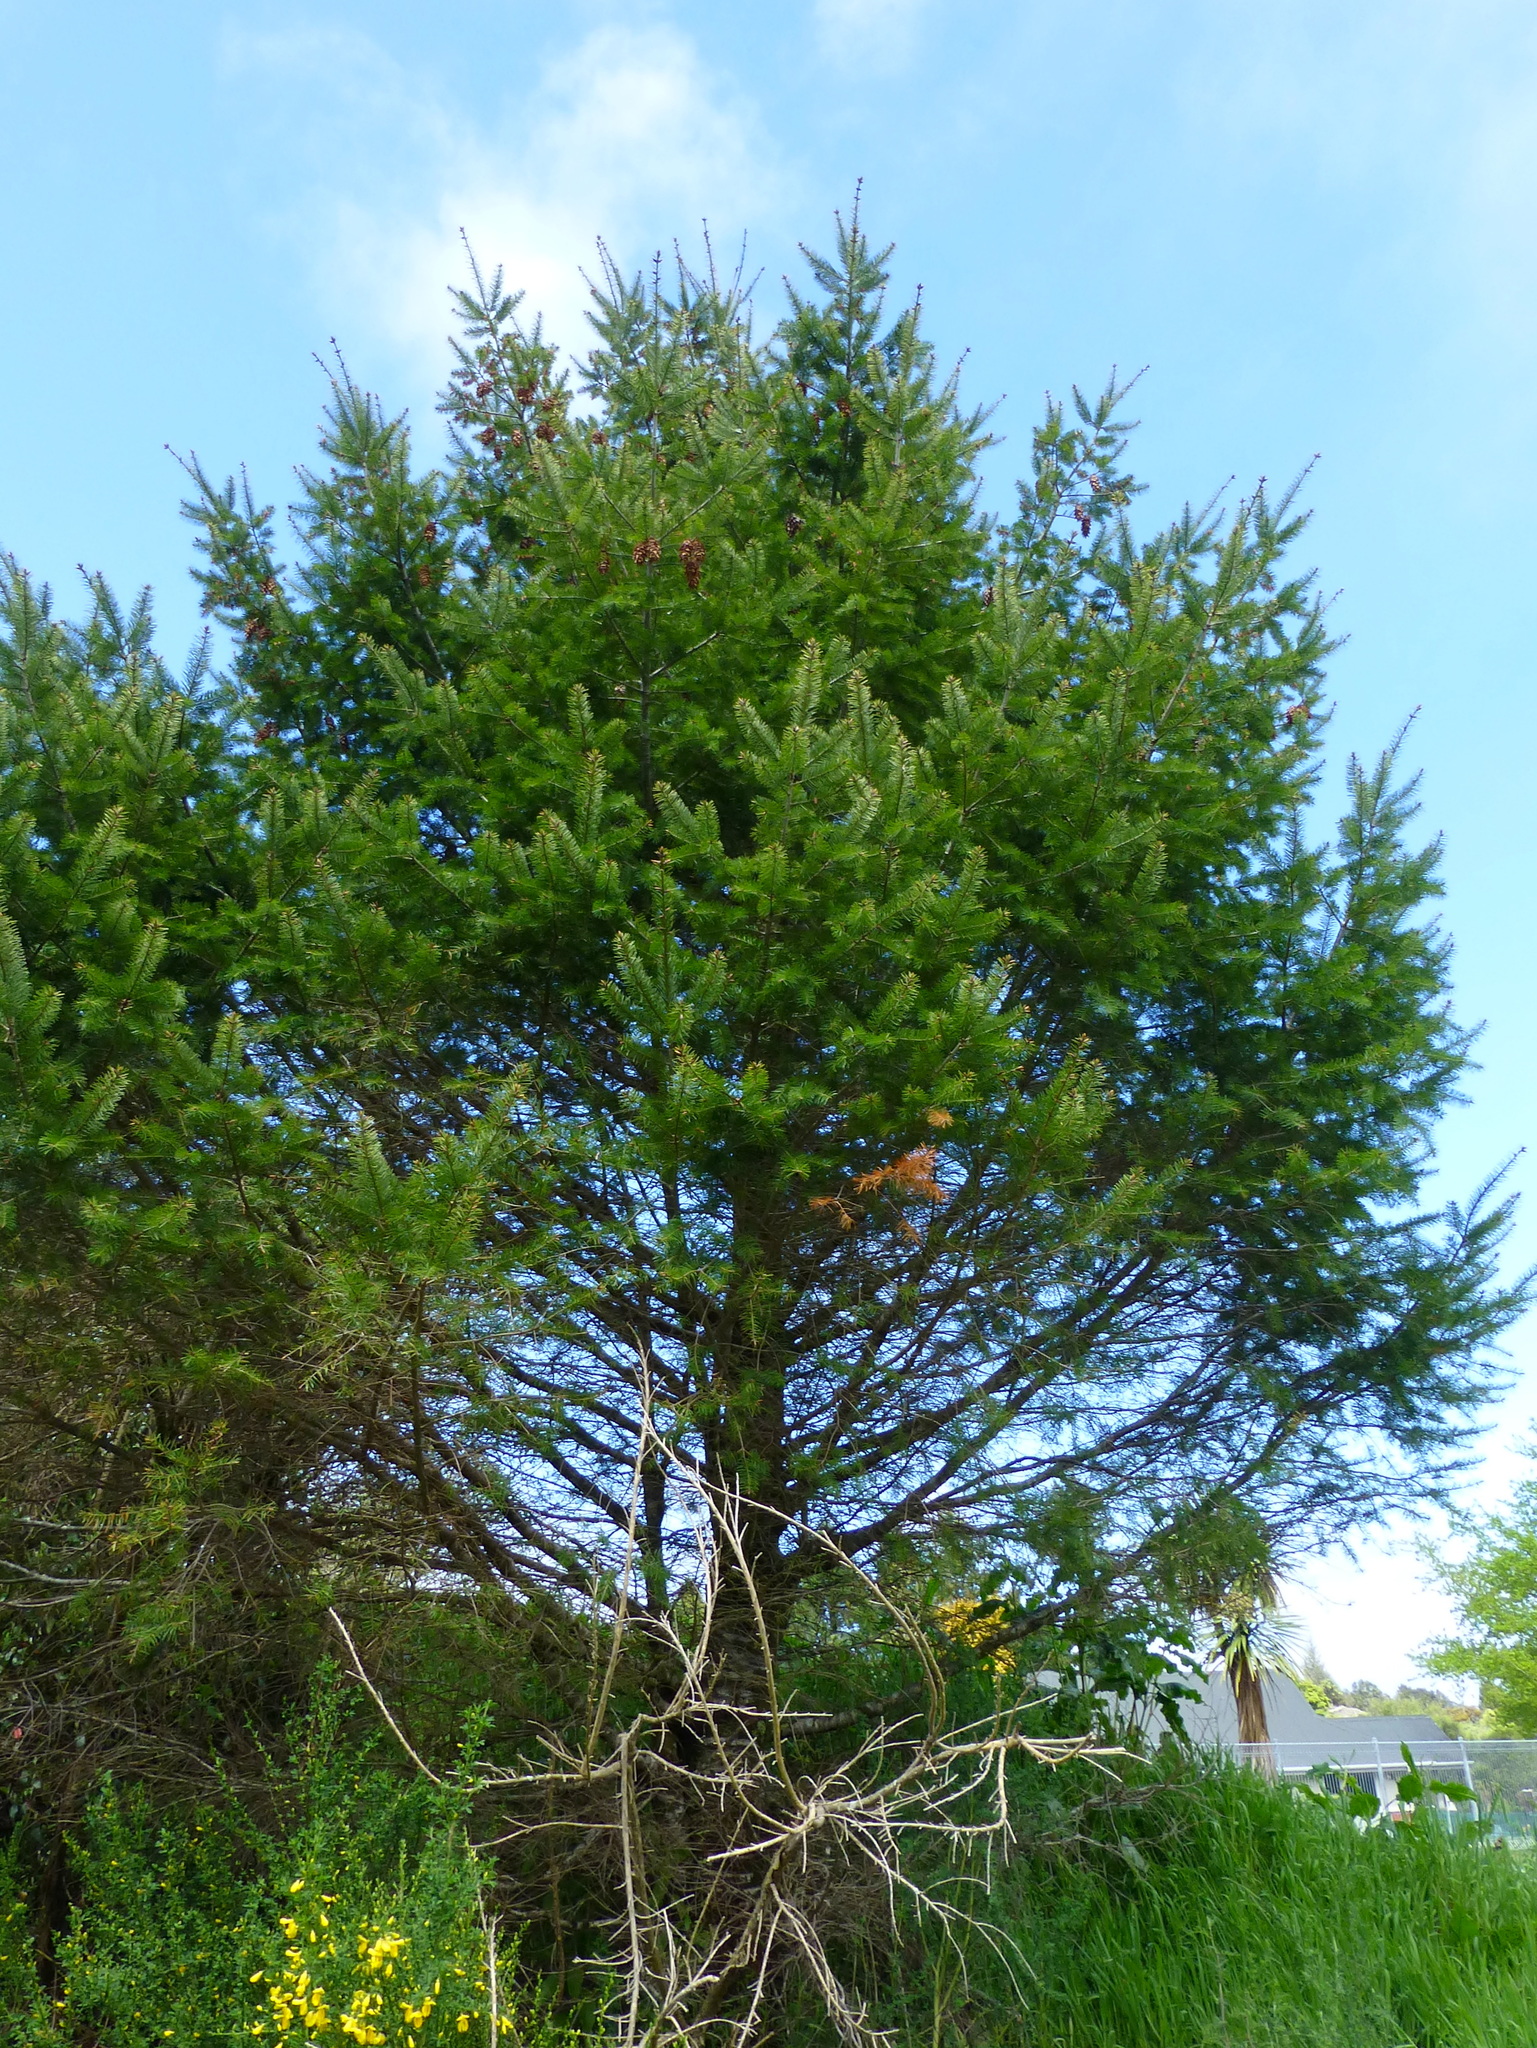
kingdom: Plantae
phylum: Tracheophyta
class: Pinopsida
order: Pinales
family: Pinaceae
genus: Pseudotsuga
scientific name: Pseudotsuga menziesii
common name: Douglas fir
